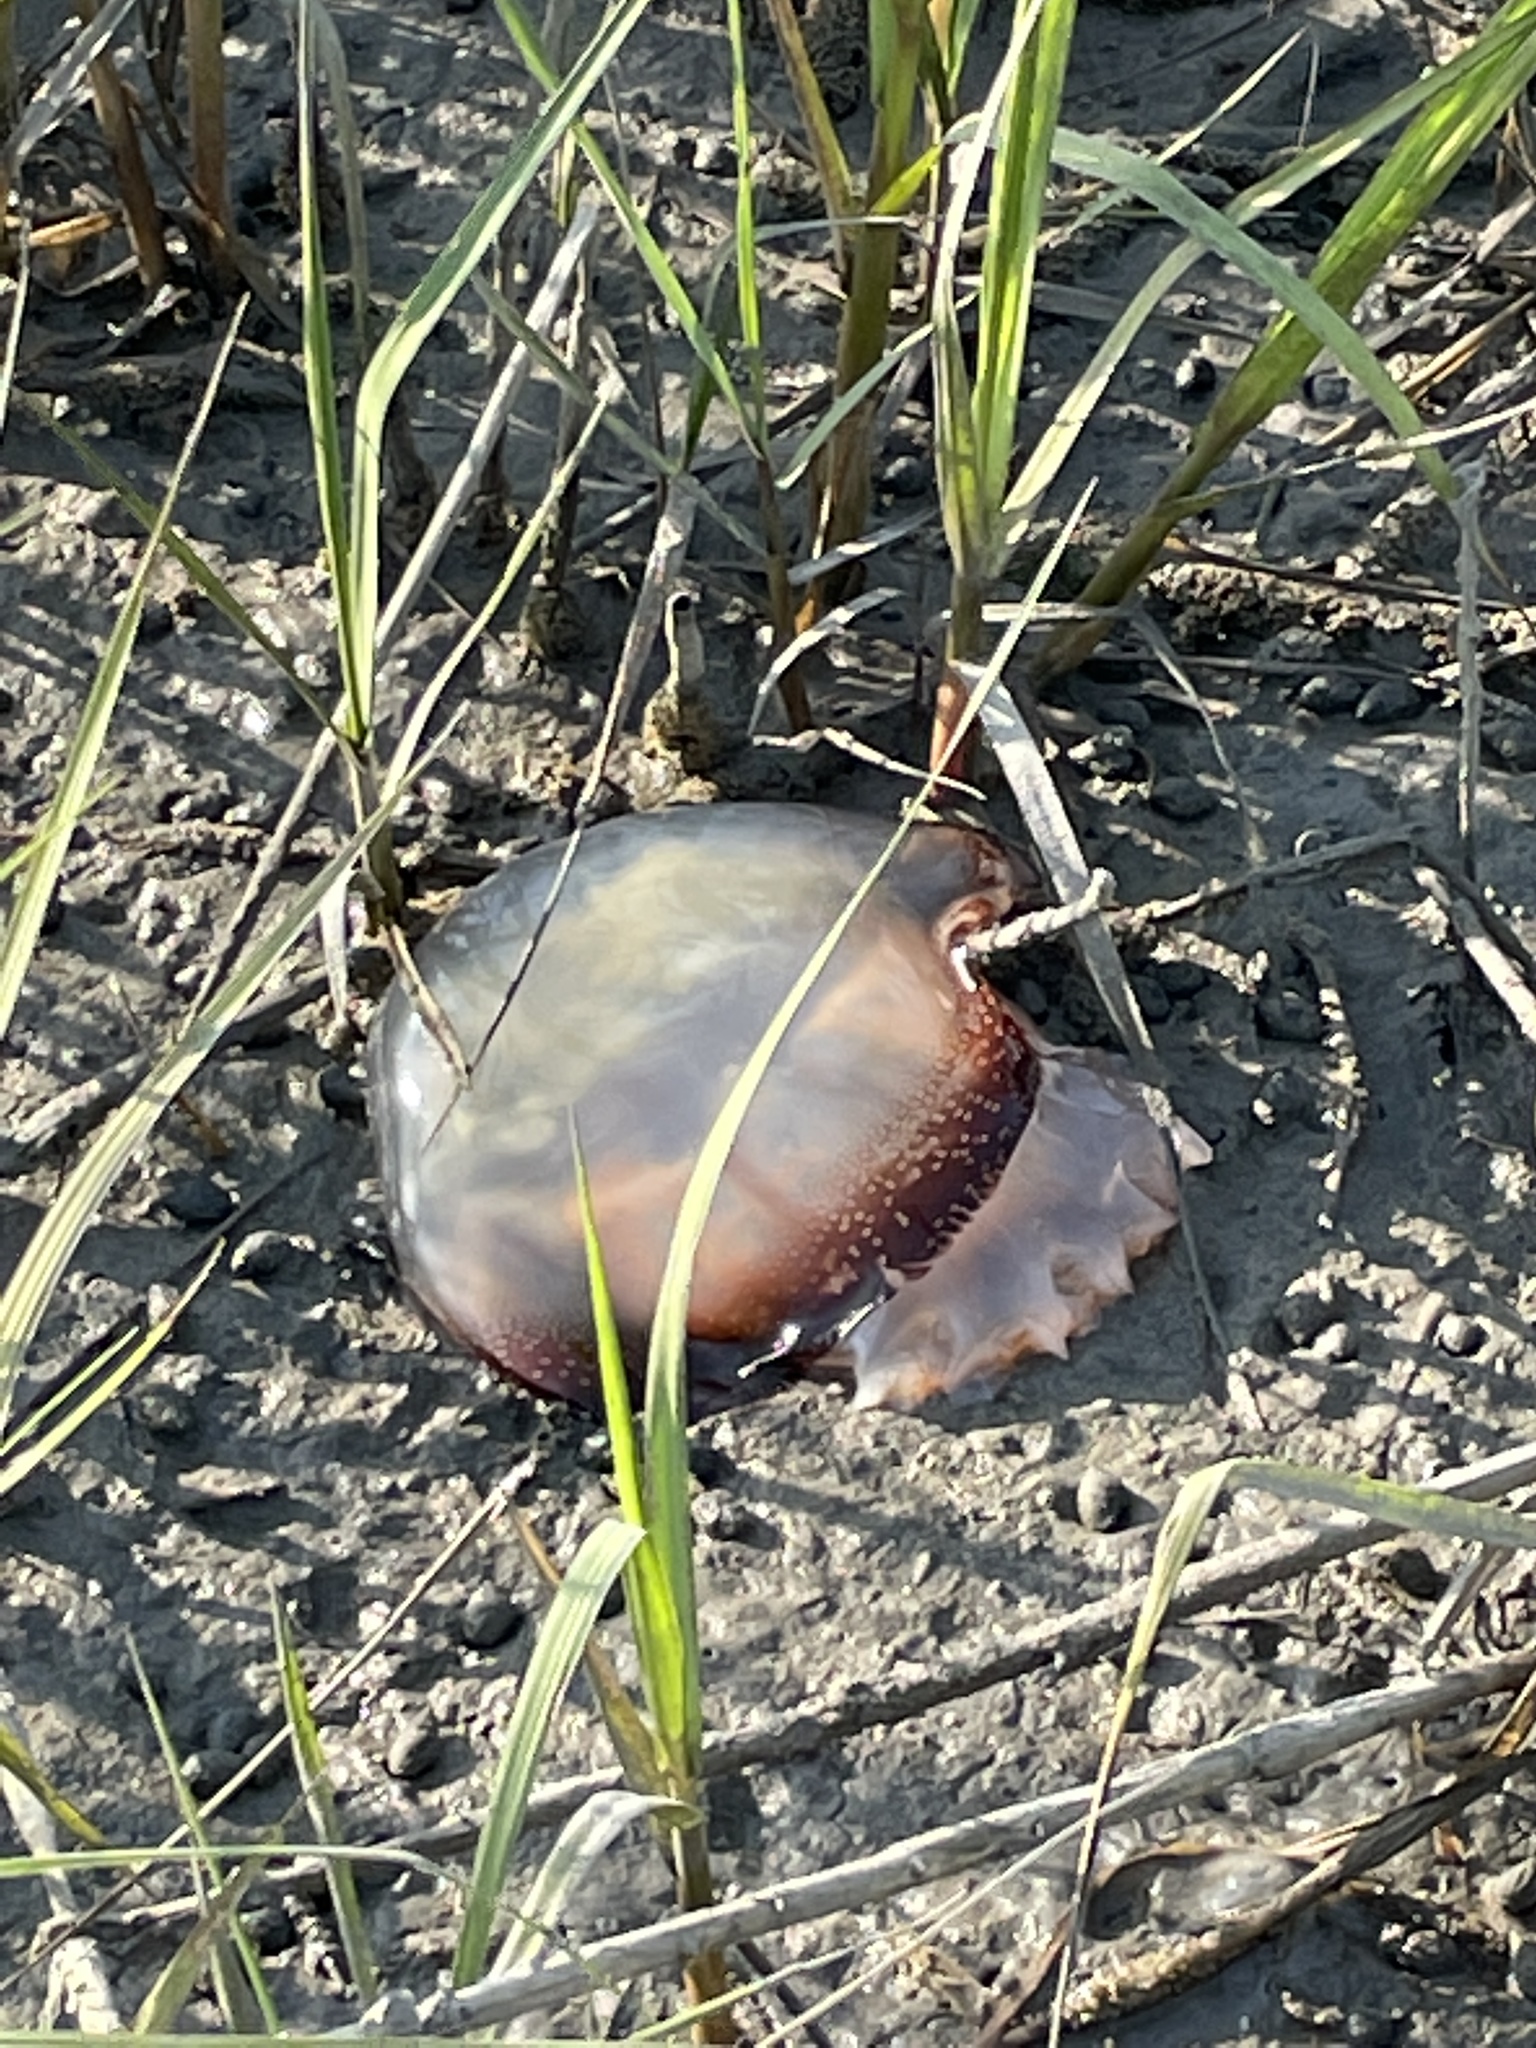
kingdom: Animalia
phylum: Cnidaria
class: Scyphozoa
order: Rhizostomeae
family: Stomolophidae
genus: Stomolophus
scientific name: Stomolophus meleagris
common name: Cabbagehead
